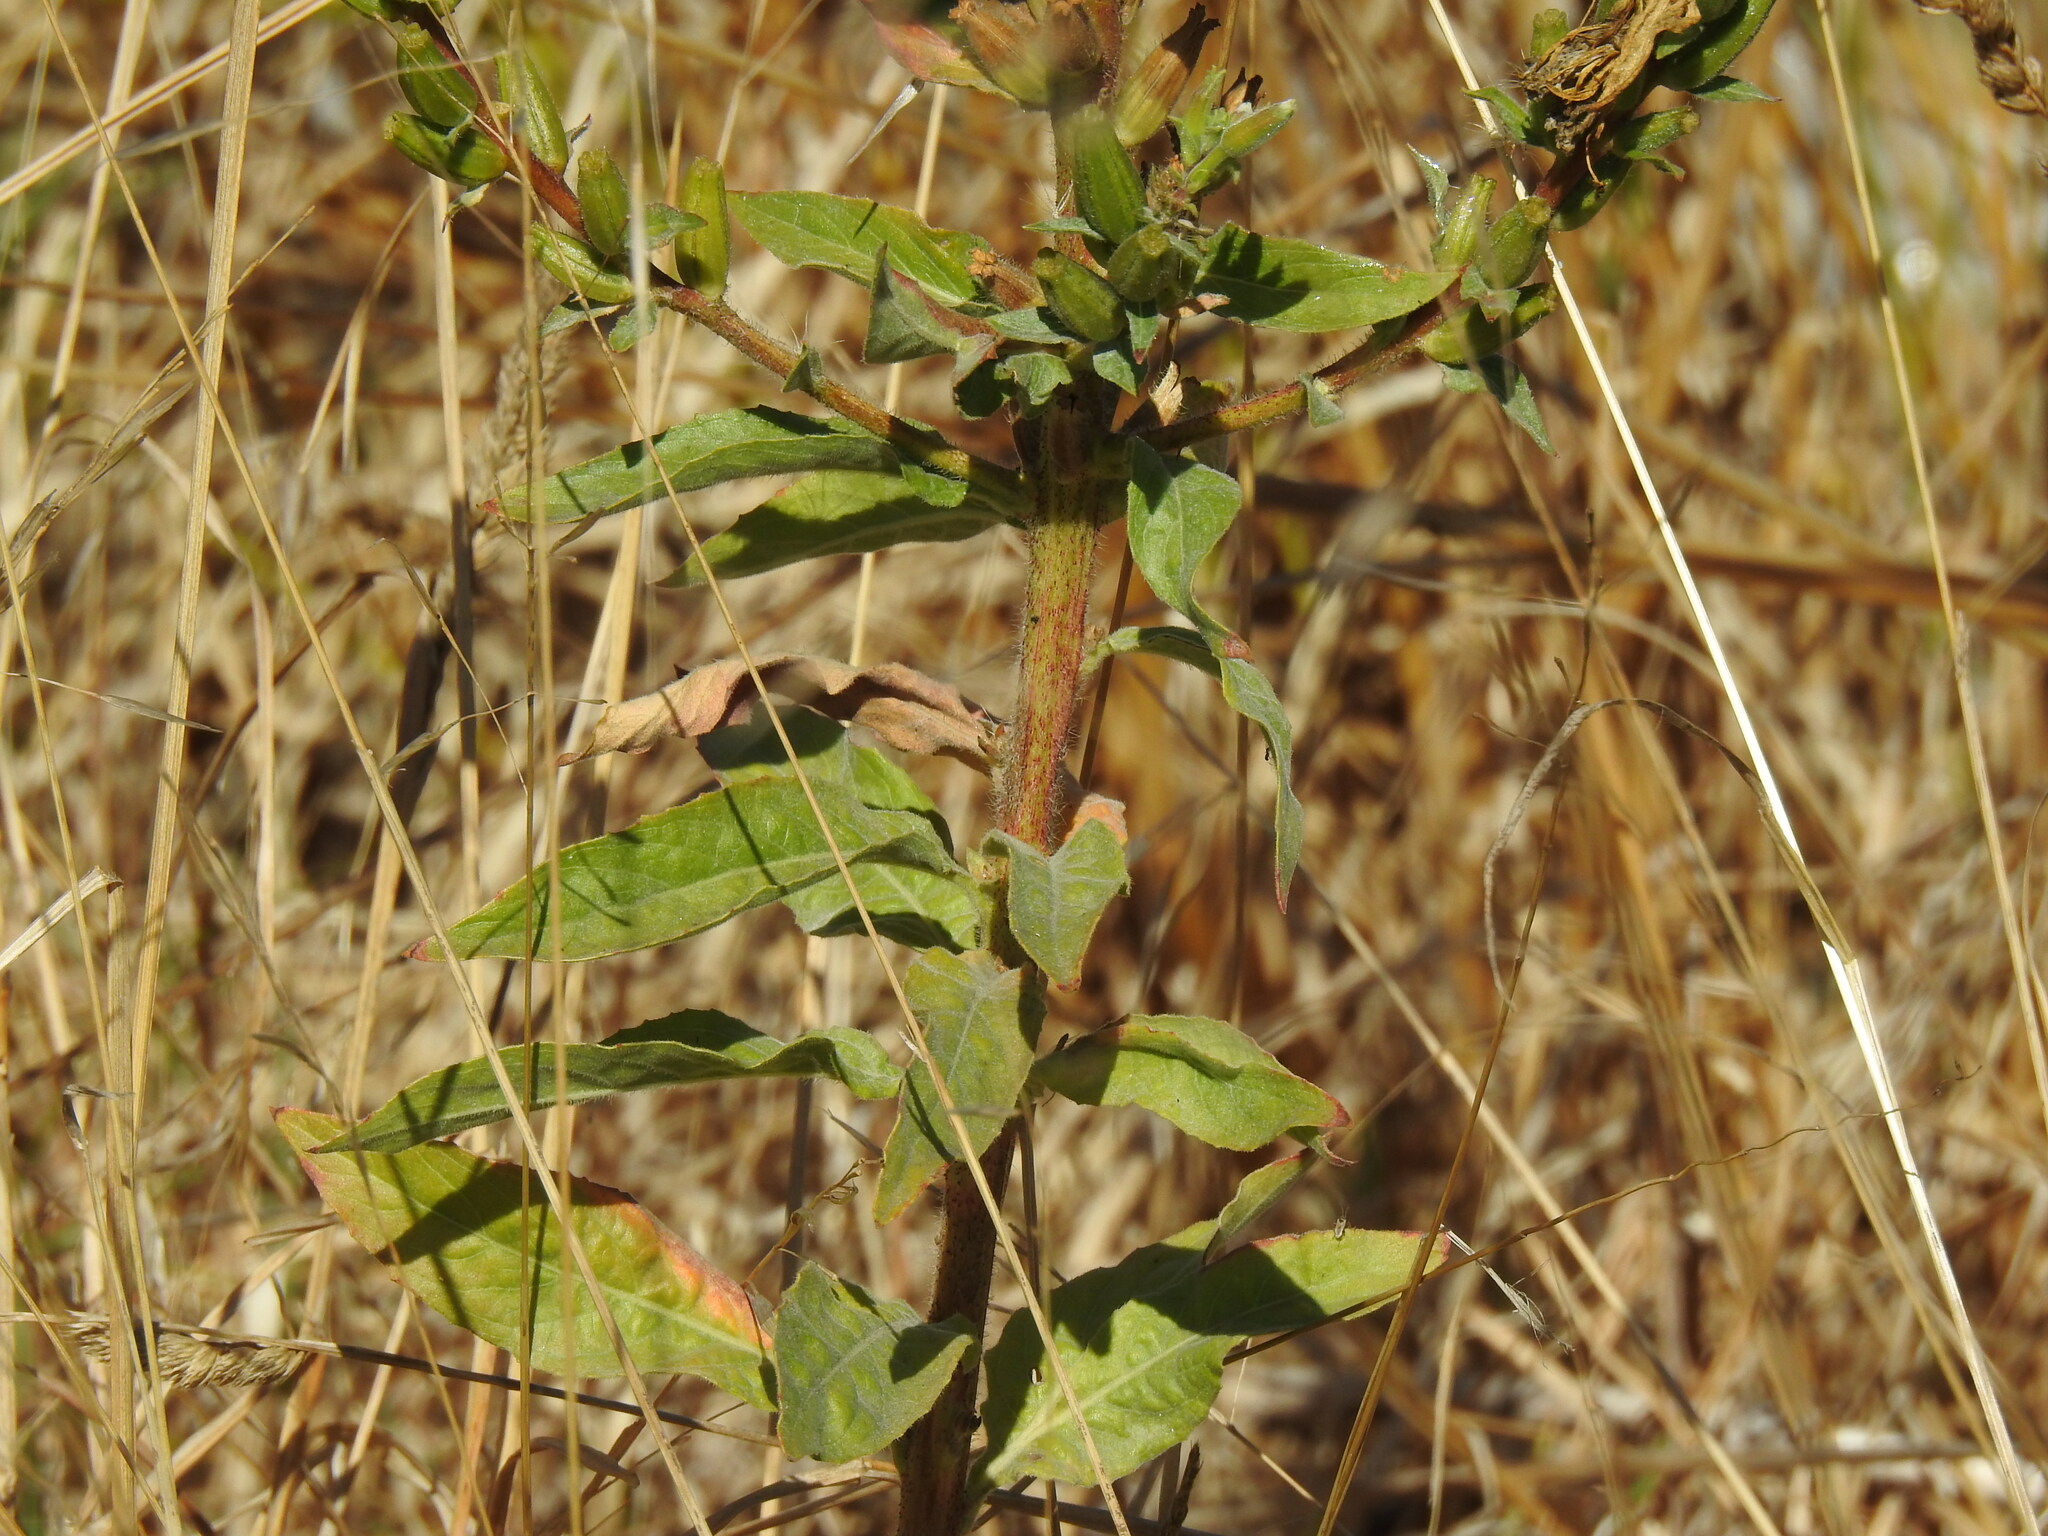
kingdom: Plantae
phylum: Tracheophyta
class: Magnoliopsida
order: Myrtales
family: Onagraceae
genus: Oenothera
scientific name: Oenothera glazioviana
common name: Large-flowered evening-primrose
